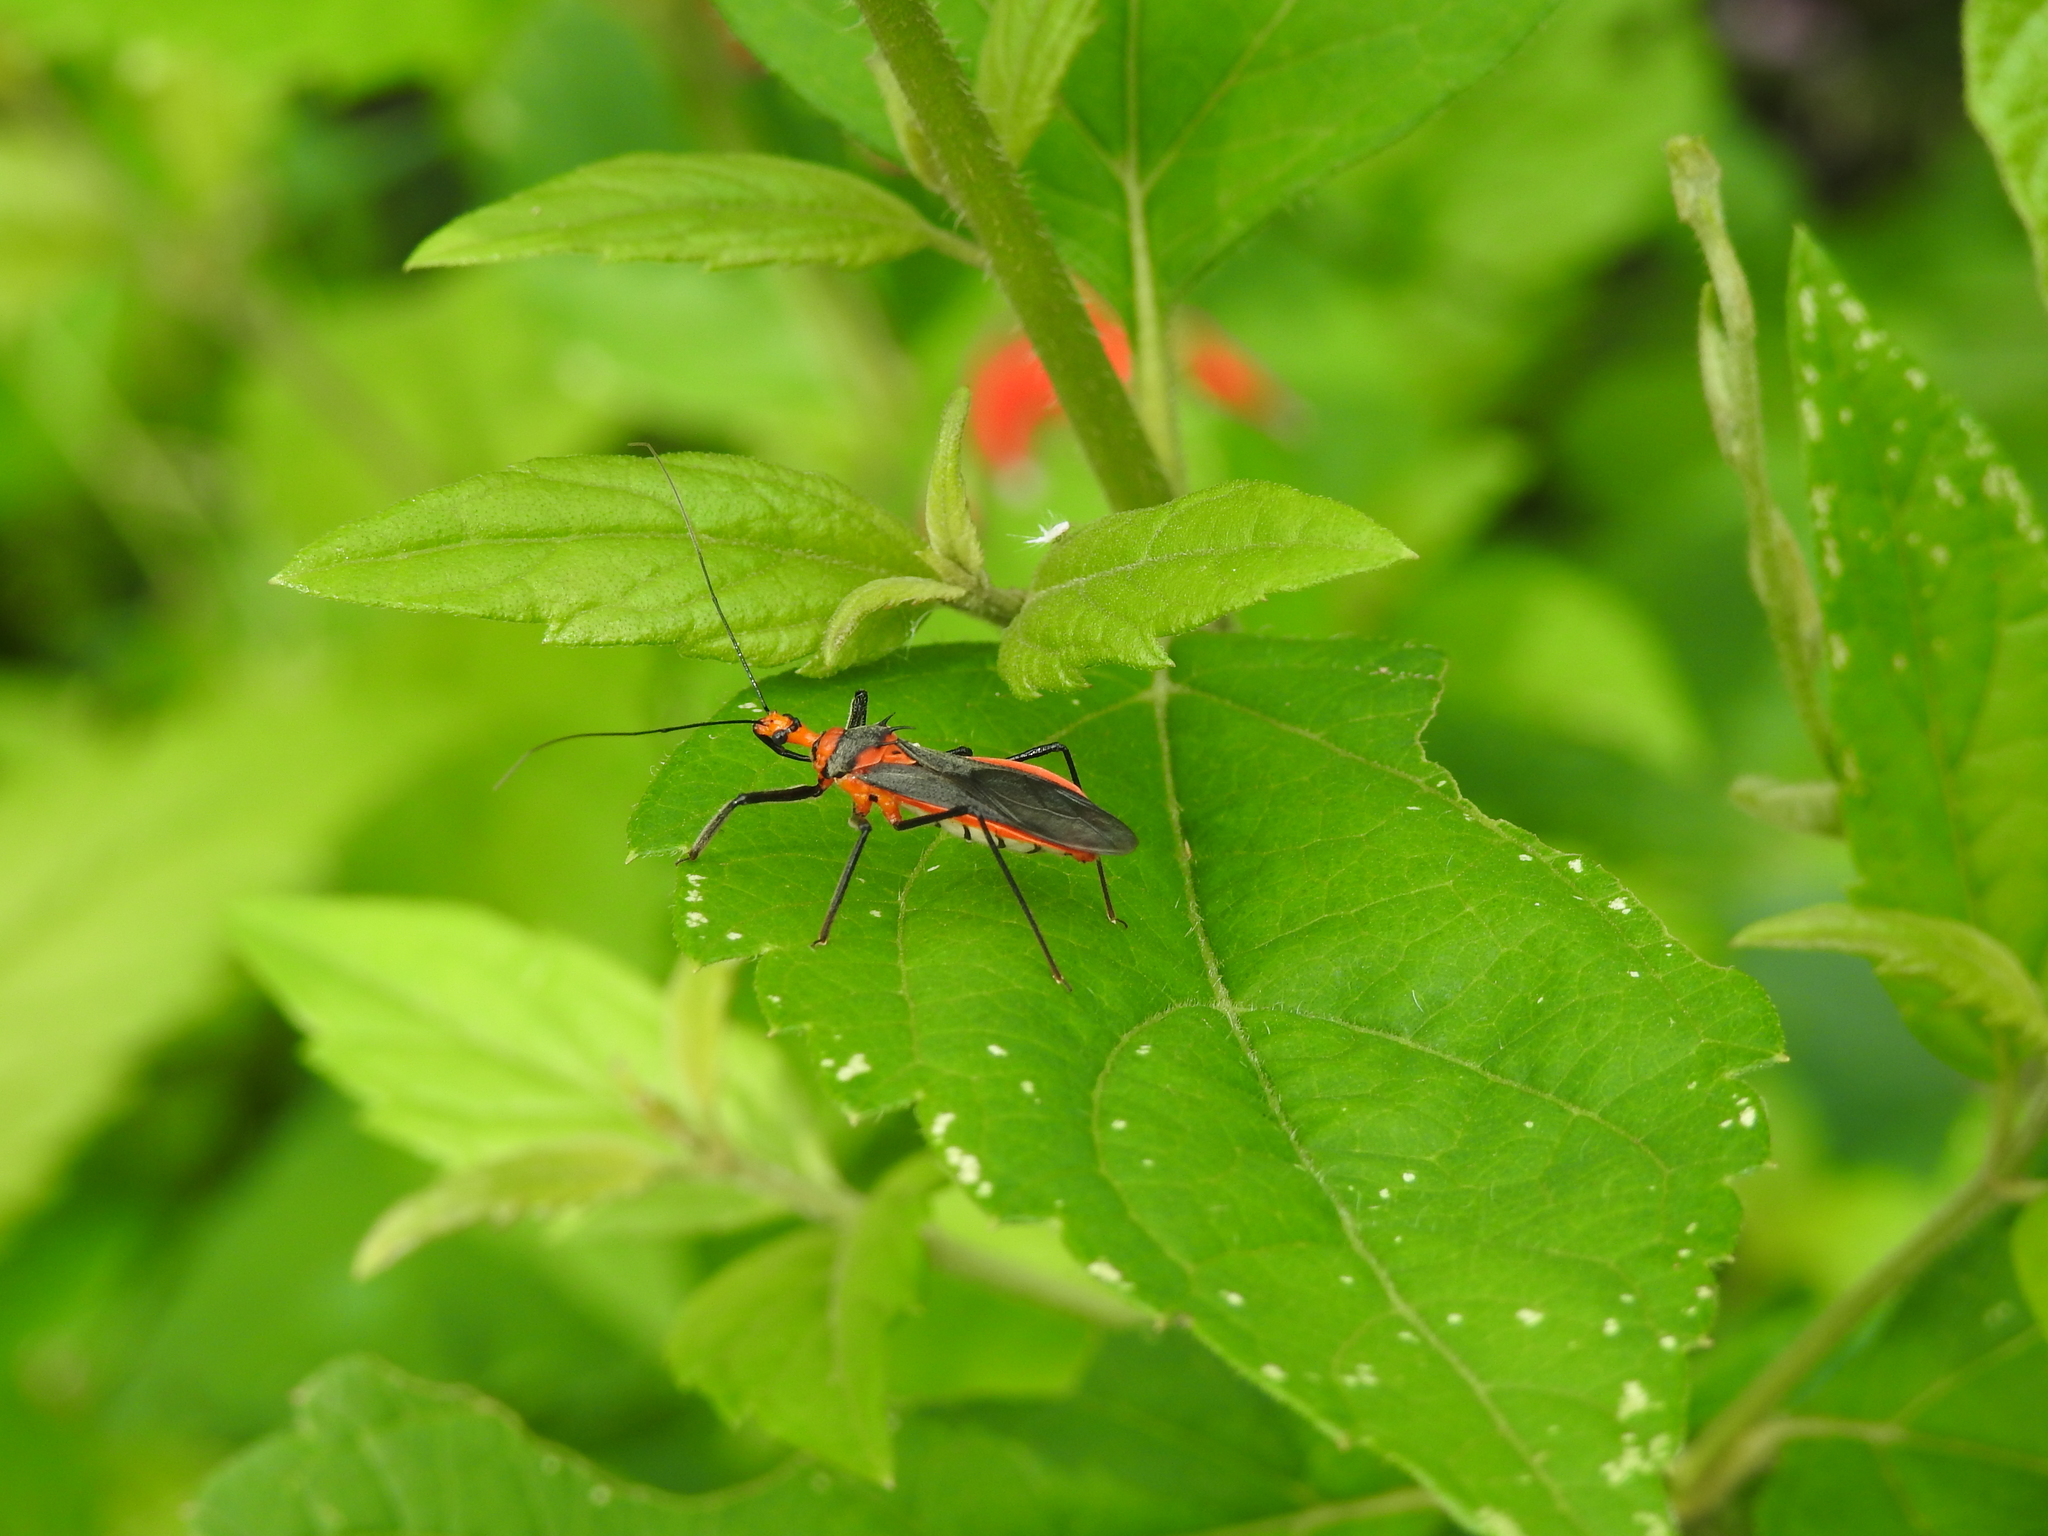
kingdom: Animalia
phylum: Arthropoda
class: Insecta
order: Hemiptera
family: Reduviidae
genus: Repipta
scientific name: Repipta fuscipes
